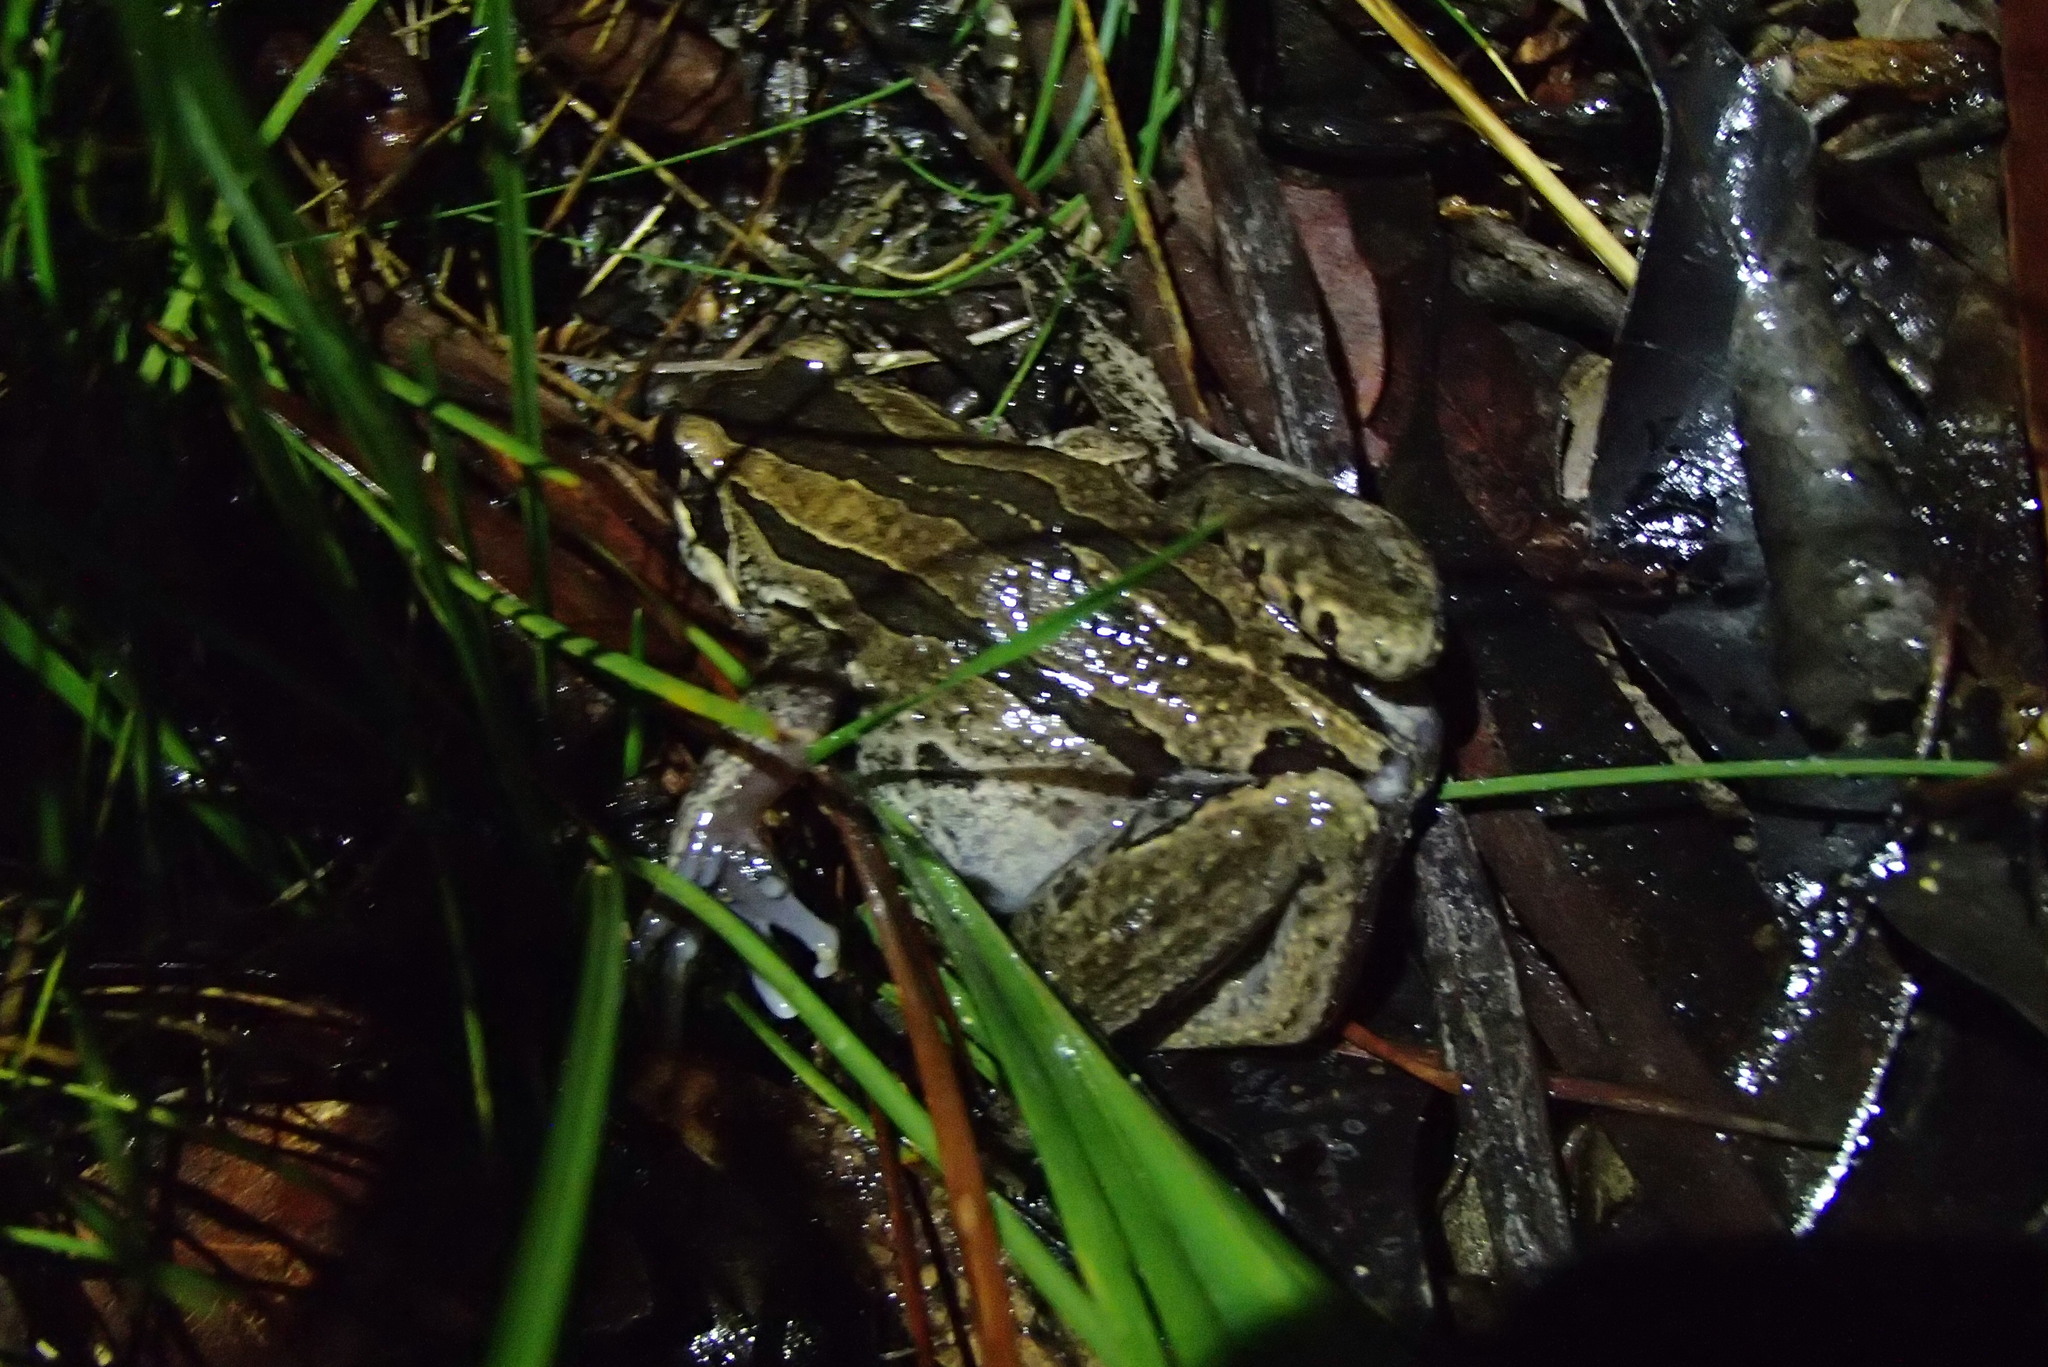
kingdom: Animalia
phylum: Chordata
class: Amphibia
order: Anura
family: Limnodynastidae
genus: Limnodynastes
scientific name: Limnodynastes peronii
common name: Brown frog
